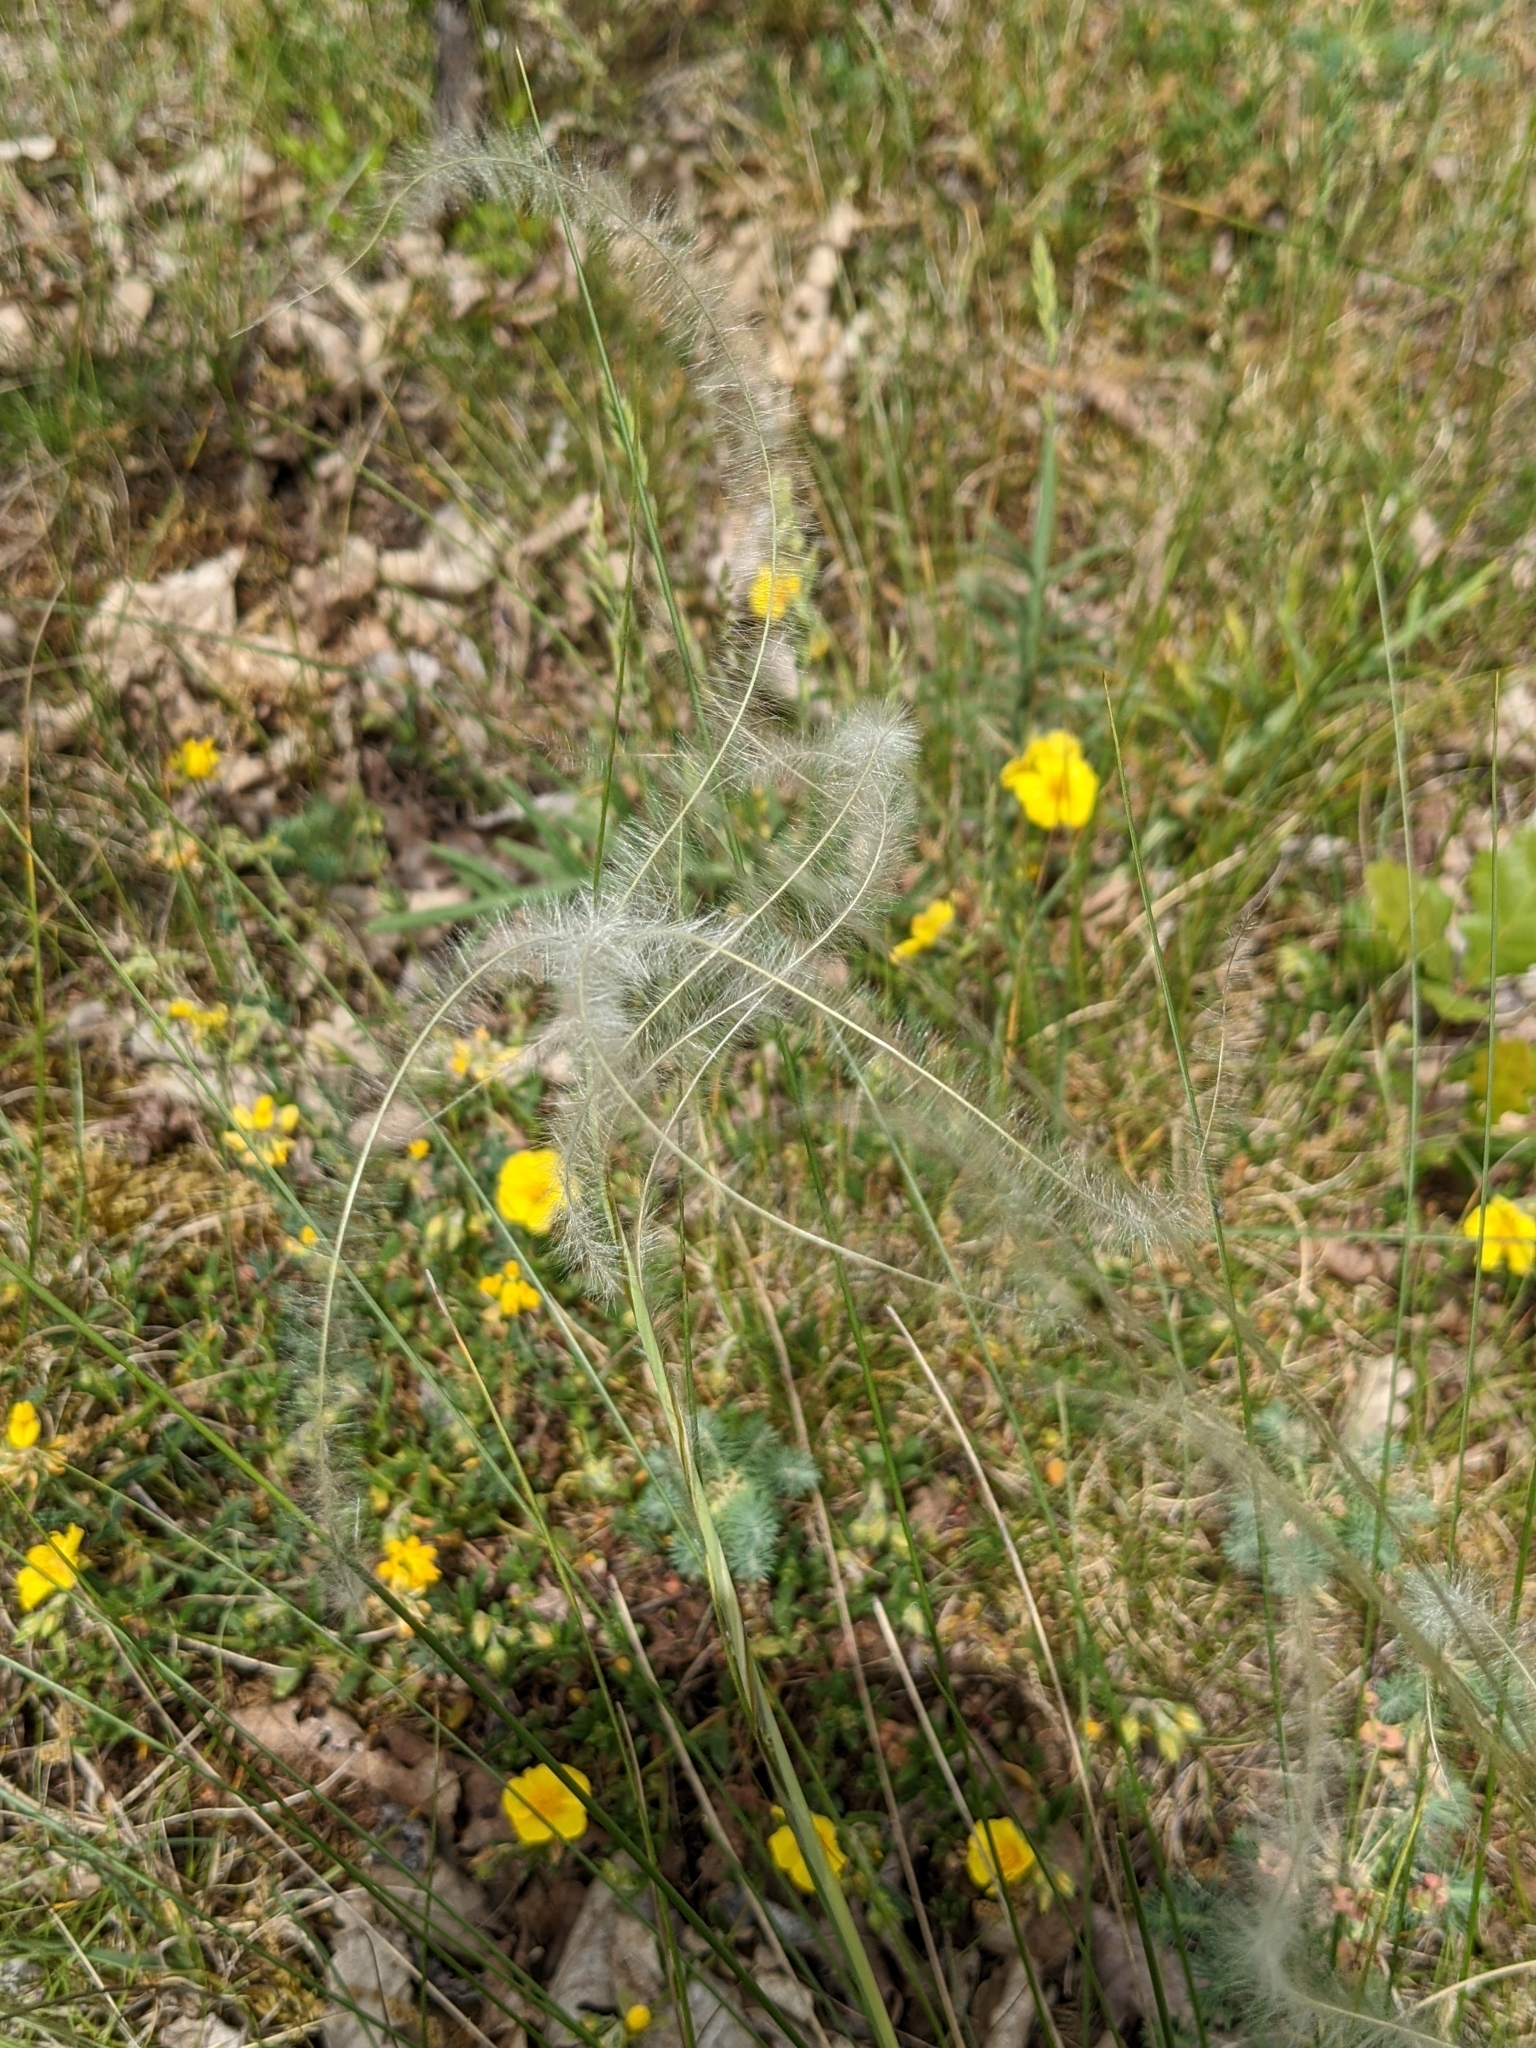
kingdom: Plantae
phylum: Tracheophyta
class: Liliopsida
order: Poales
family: Poaceae
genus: Stipa
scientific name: Stipa pennata
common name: European feather grass
